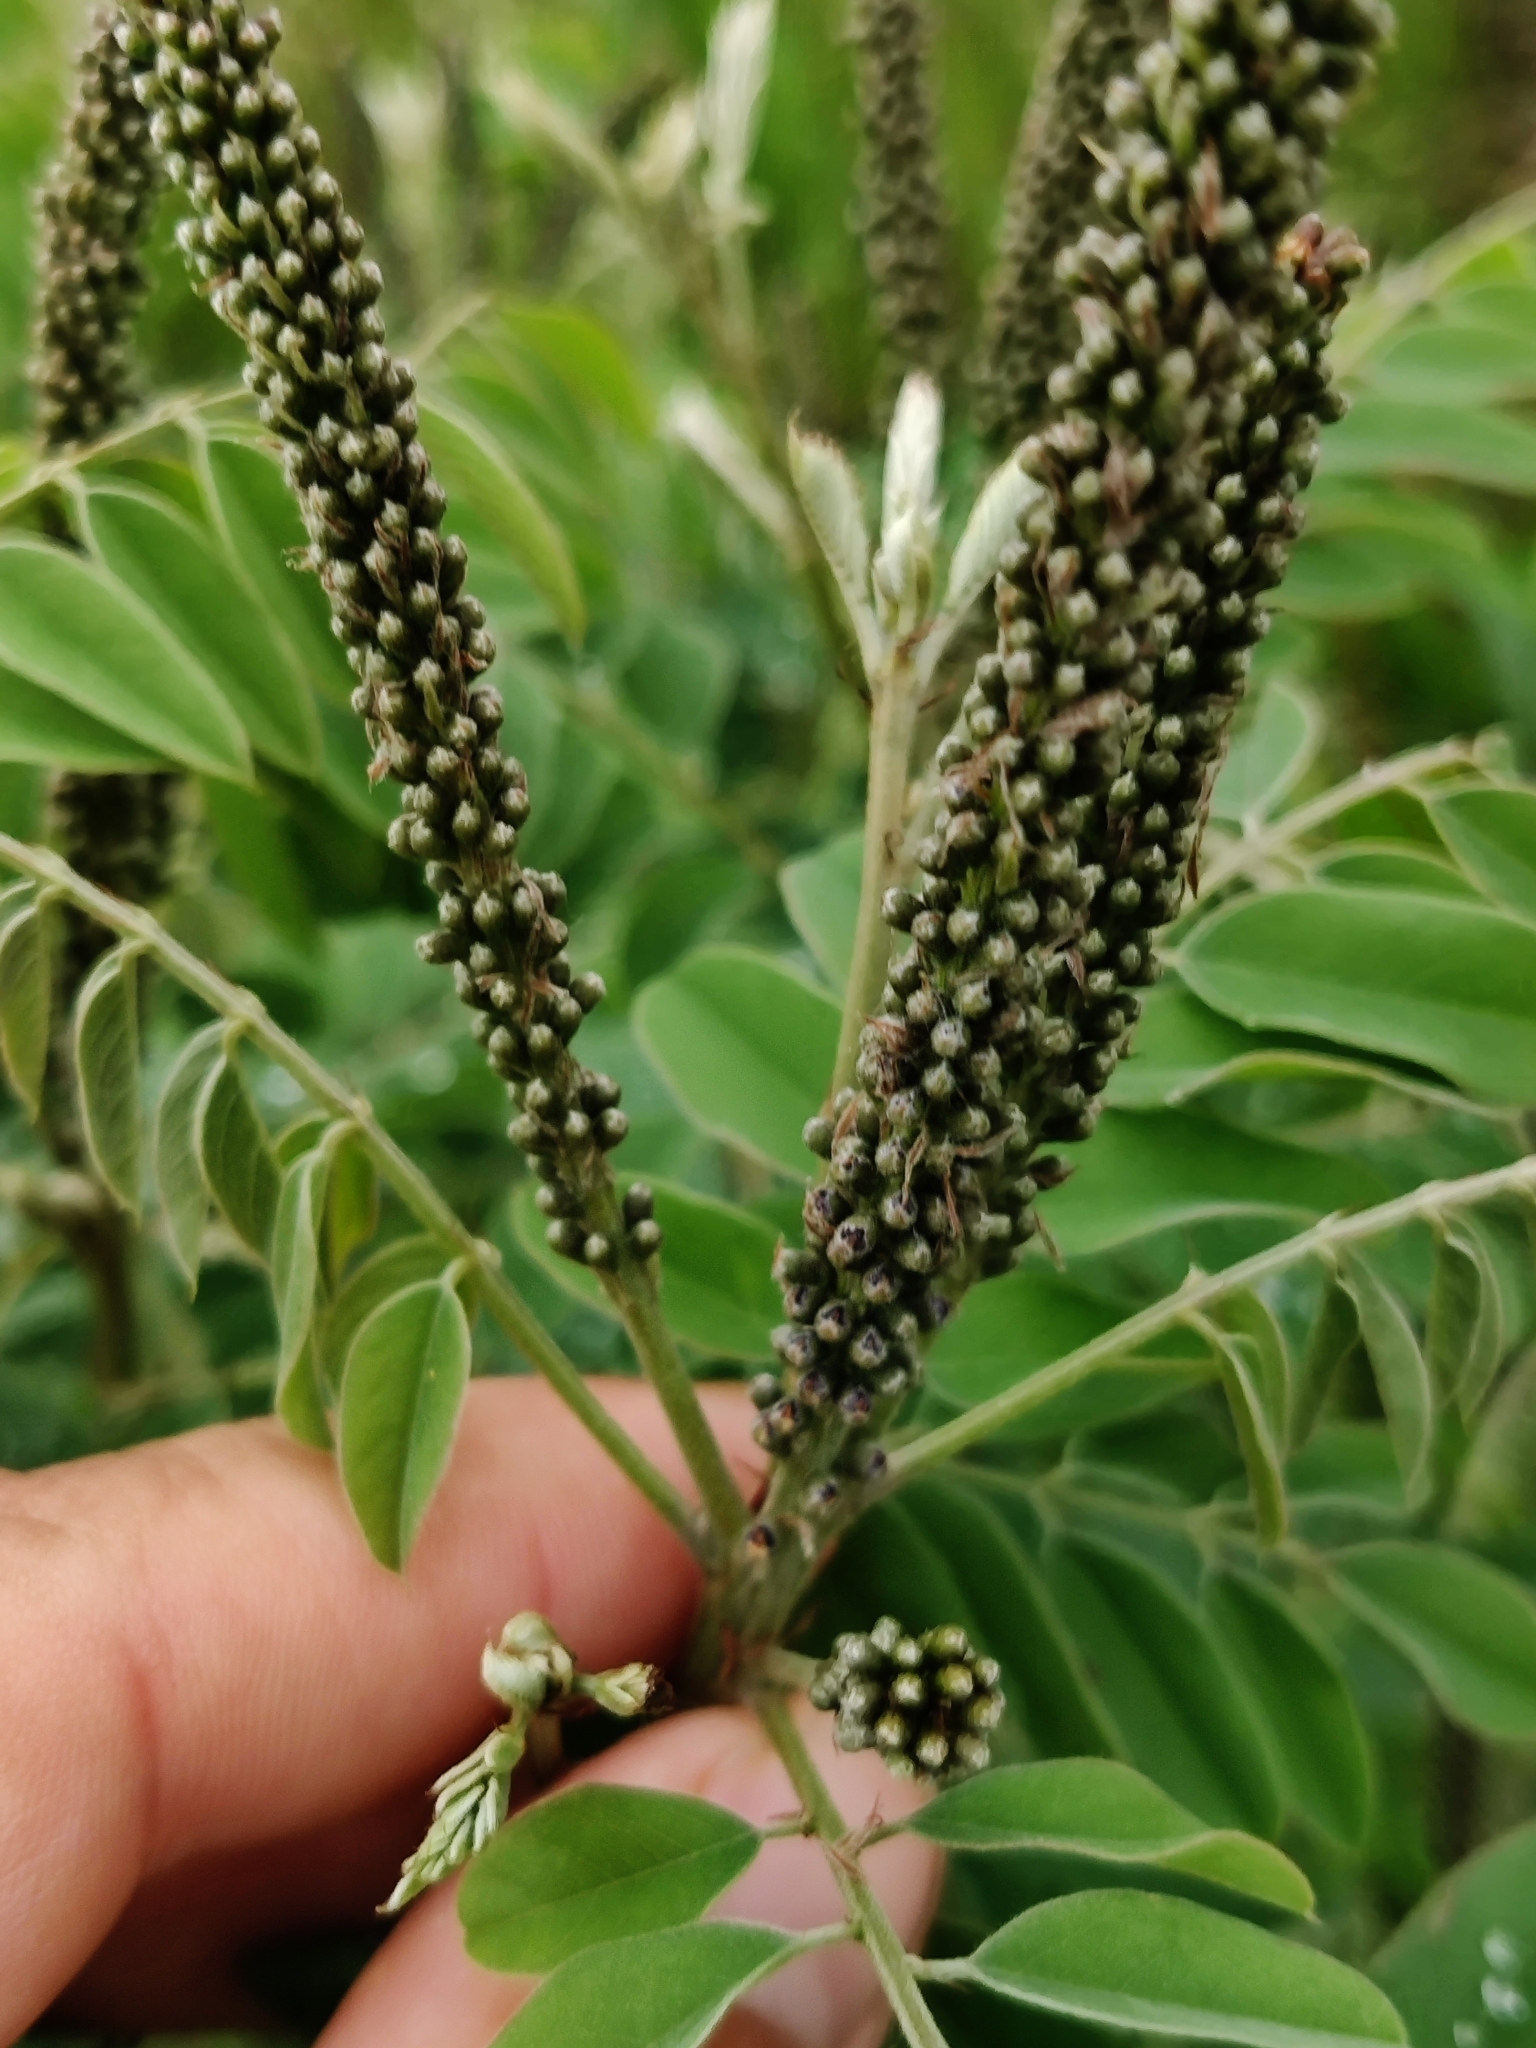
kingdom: Plantae
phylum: Tracheophyta
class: Magnoliopsida
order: Fabales
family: Fabaceae
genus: Amorpha
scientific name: Amorpha fruticosa
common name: False indigo
